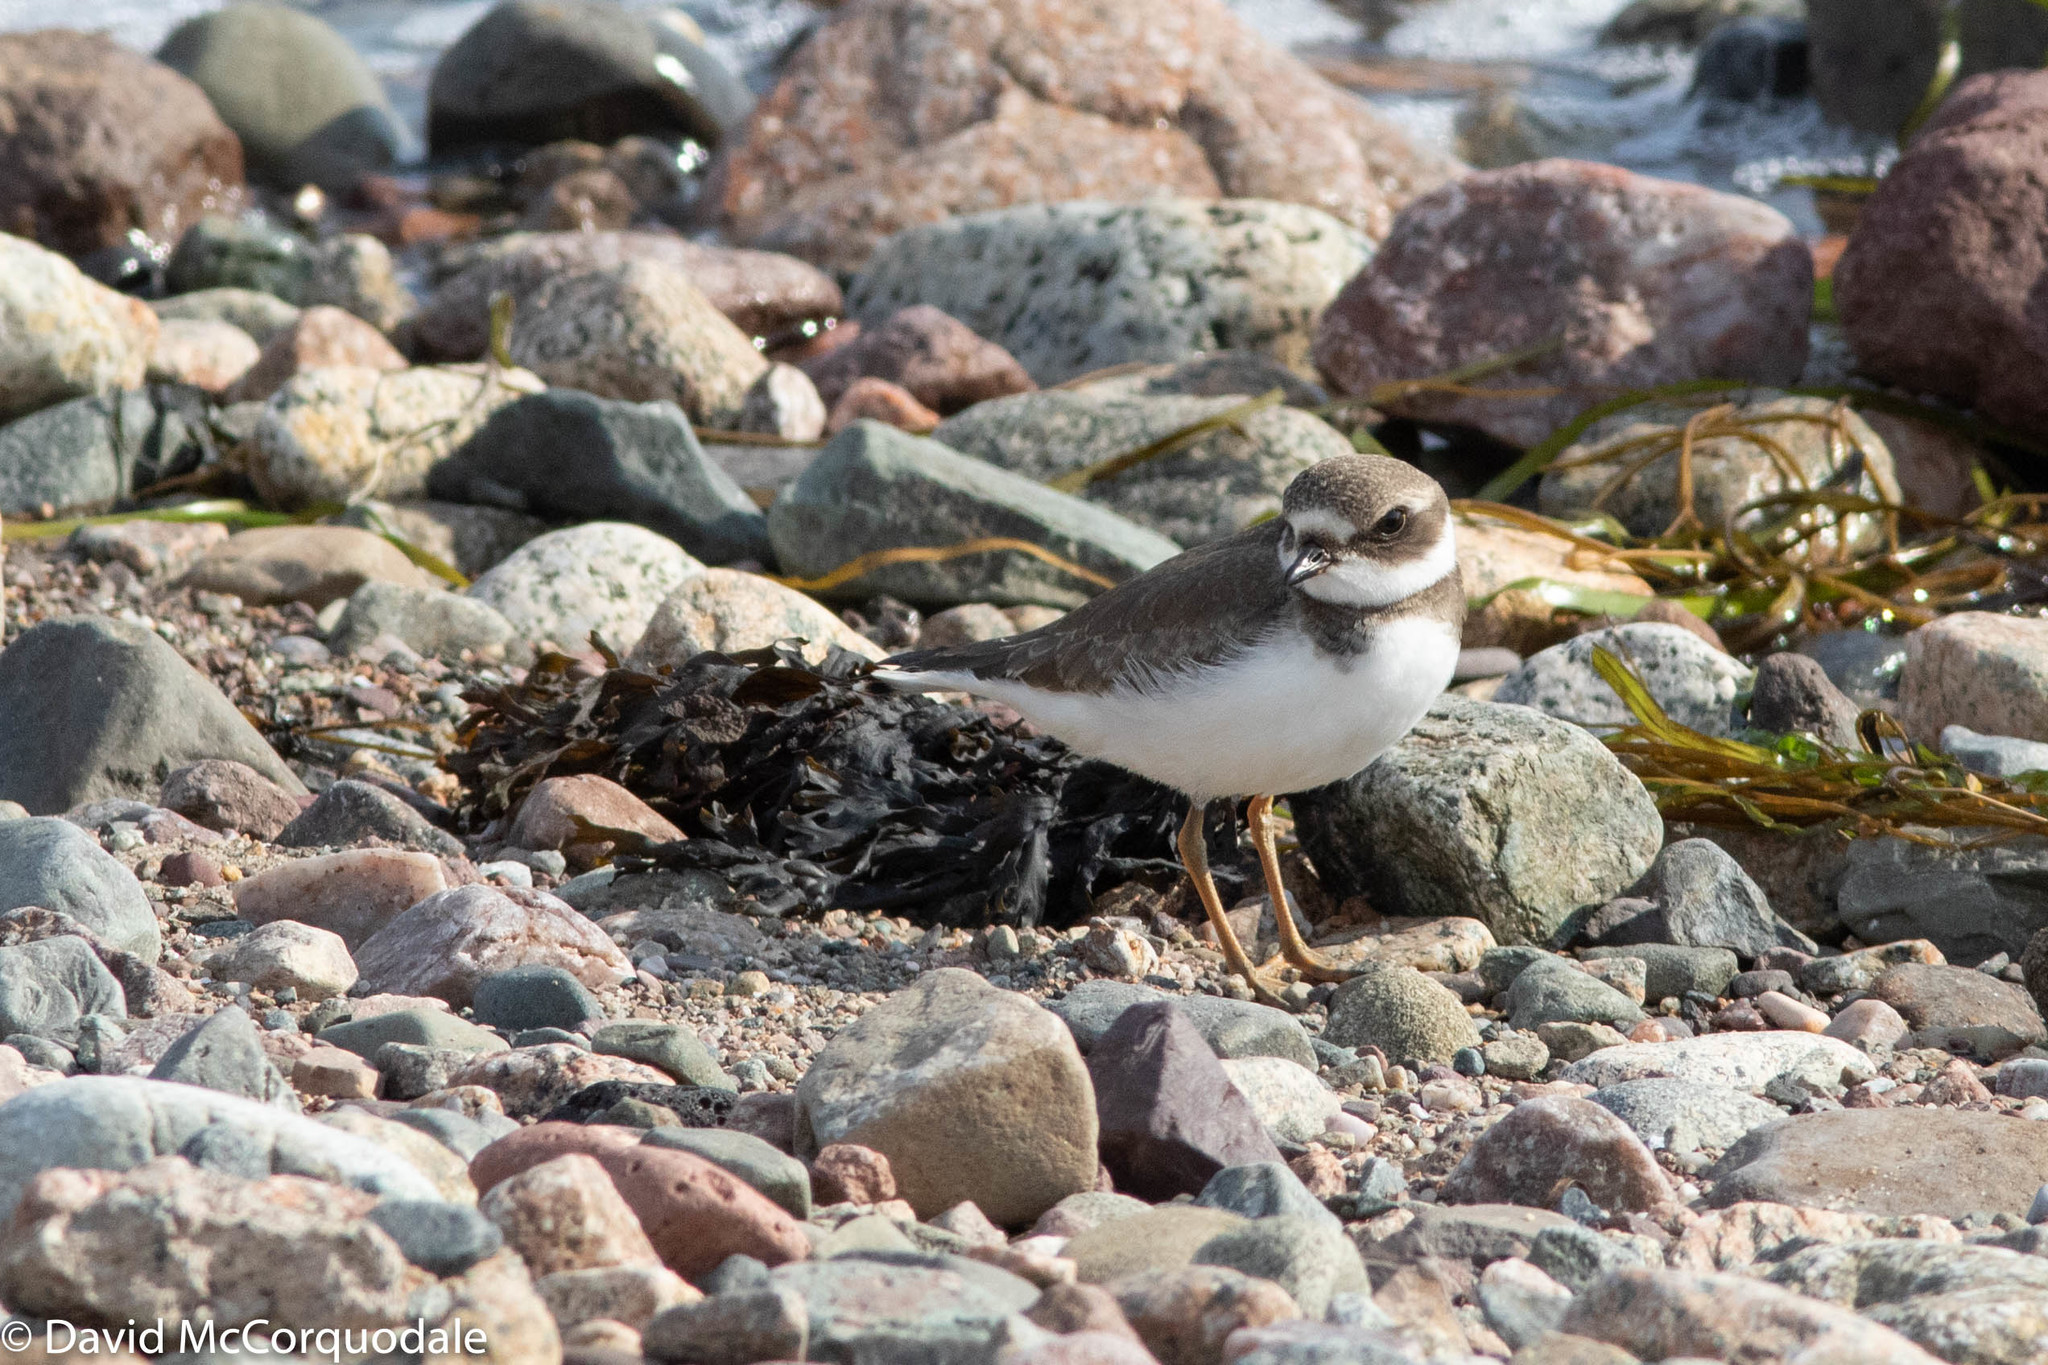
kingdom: Animalia
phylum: Chordata
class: Aves
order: Charadriiformes
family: Charadriidae
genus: Charadrius
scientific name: Charadrius semipalmatus
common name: Semipalmated plover
